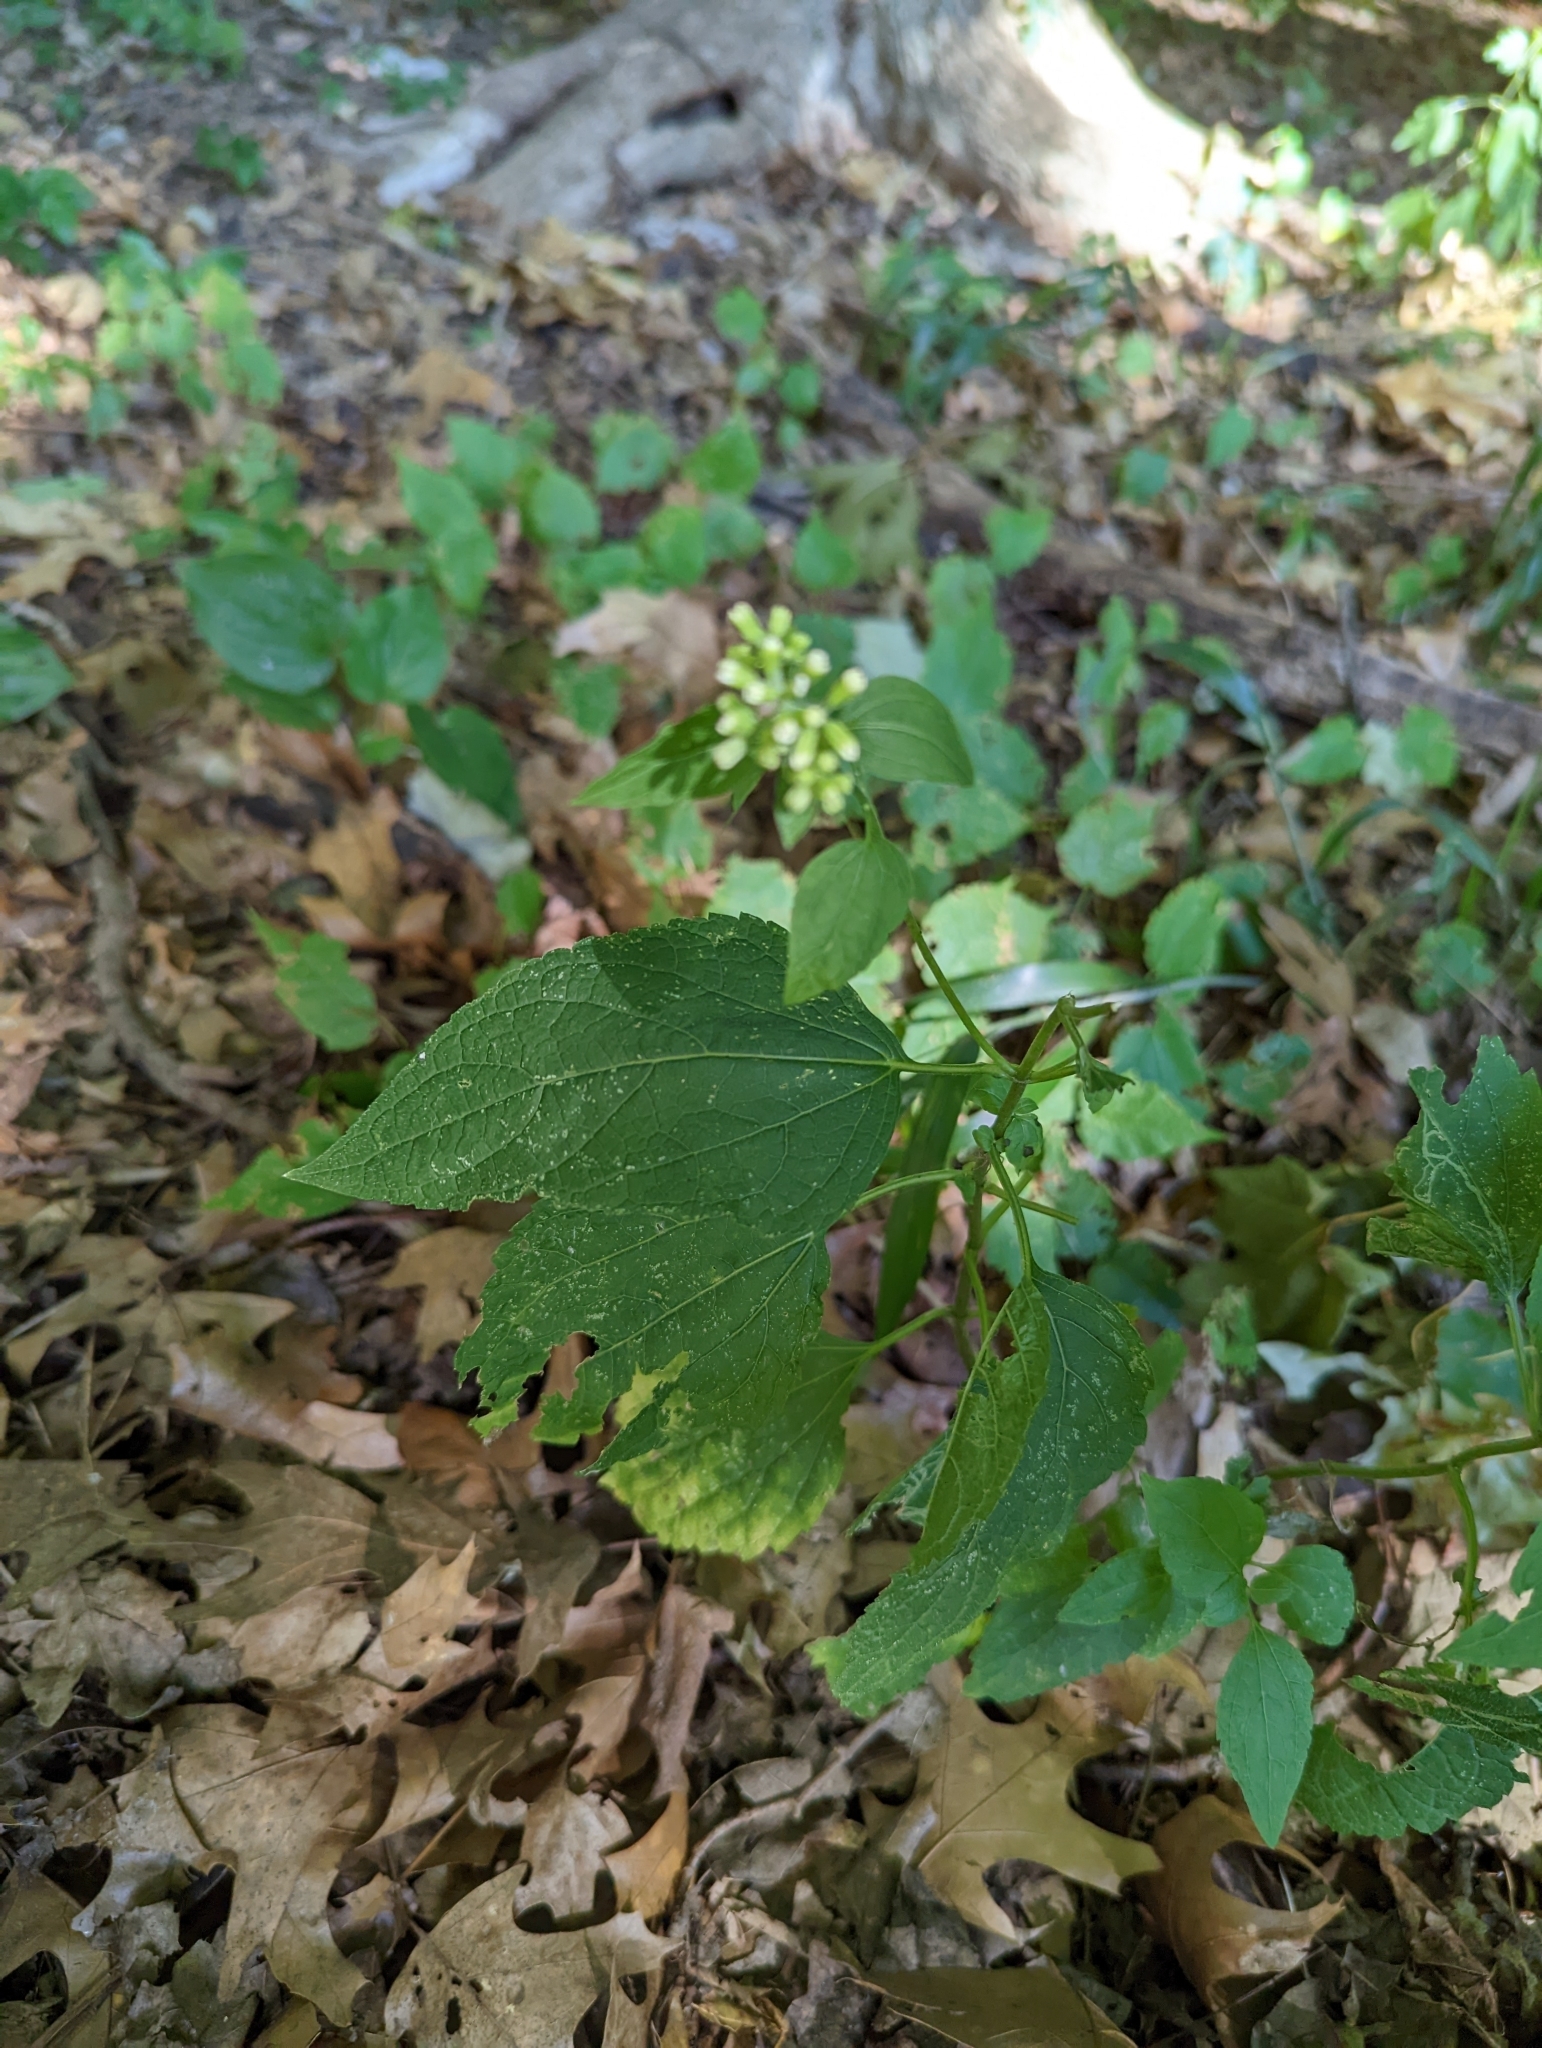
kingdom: Plantae
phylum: Tracheophyta
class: Magnoliopsida
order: Asterales
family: Asteraceae
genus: Ageratina
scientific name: Ageratina altissima
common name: White snakeroot
